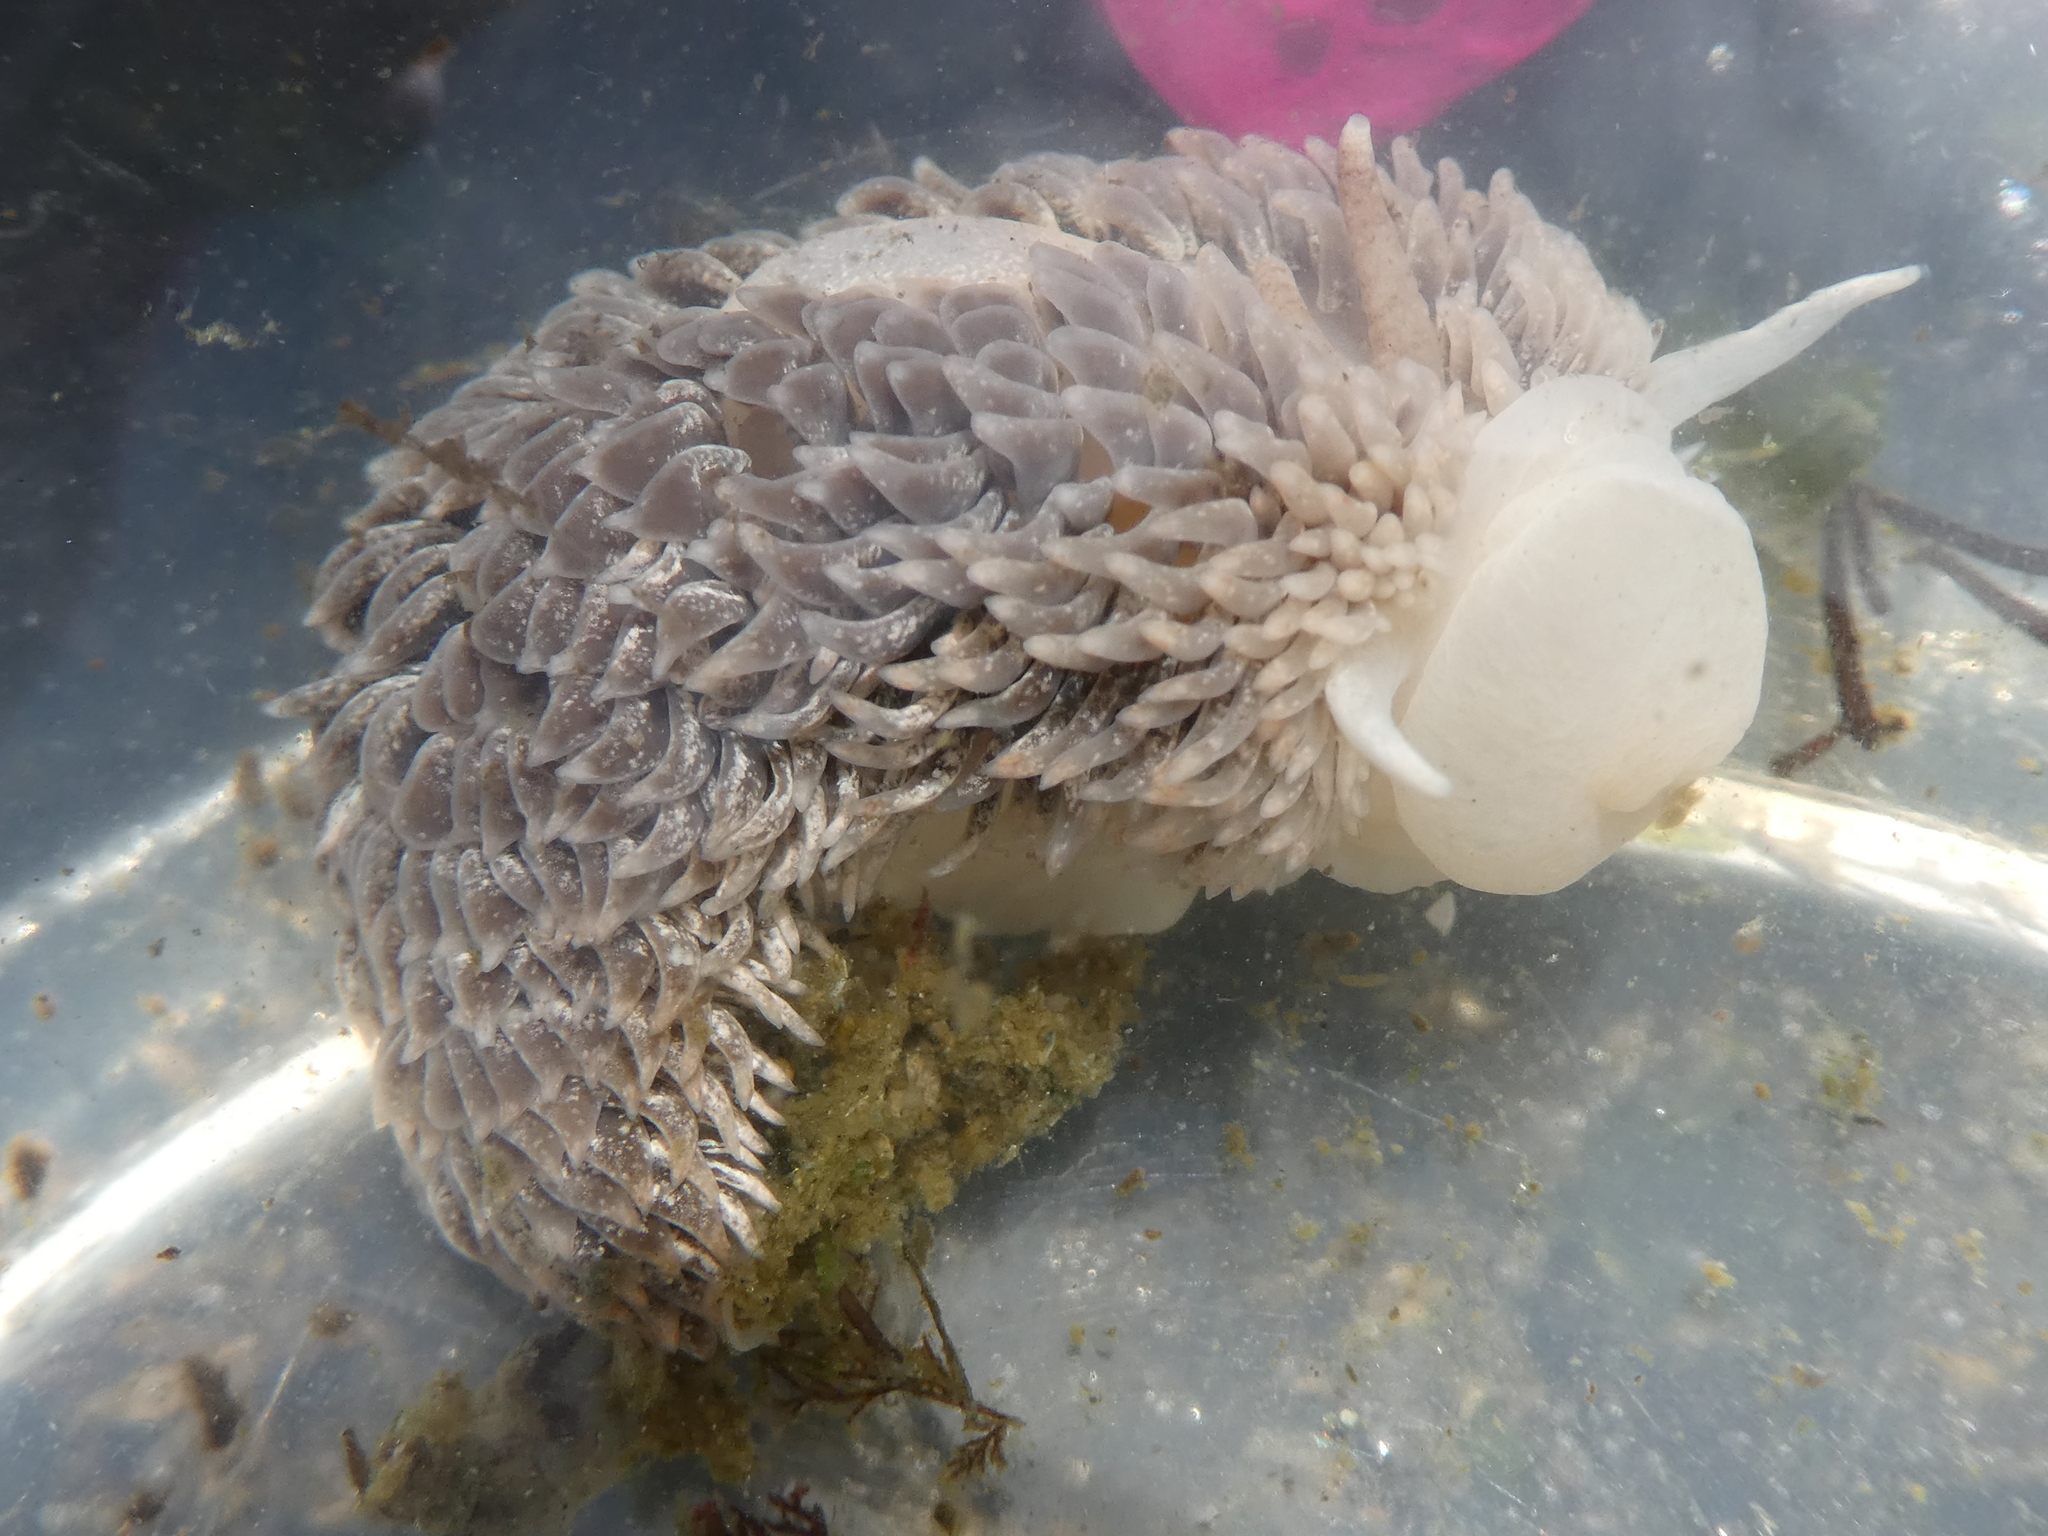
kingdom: Animalia
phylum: Mollusca
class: Gastropoda
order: Nudibranchia
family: Aeolidiidae
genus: Aeolidia
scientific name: Aeolidia loui
